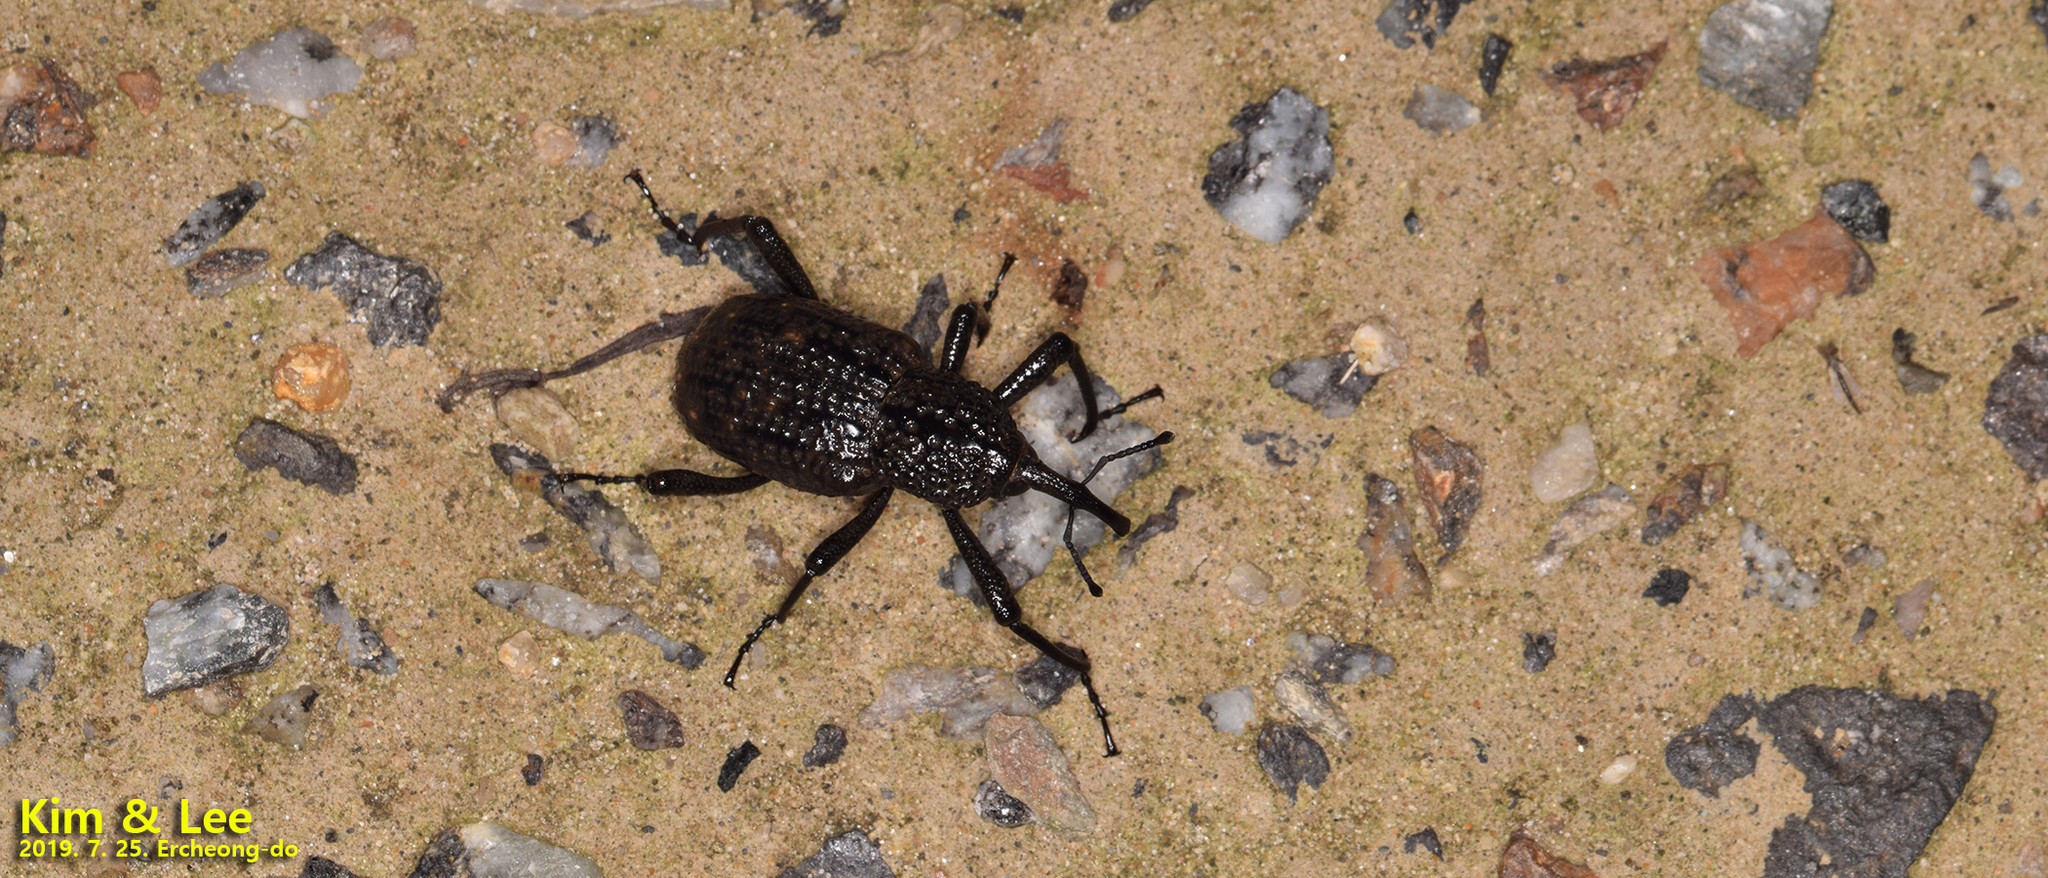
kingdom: Animalia
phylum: Arthropoda
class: Insecta
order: Coleoptera
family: Dryophthoridae
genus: Sipalinus
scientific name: Sipalinus gigas
